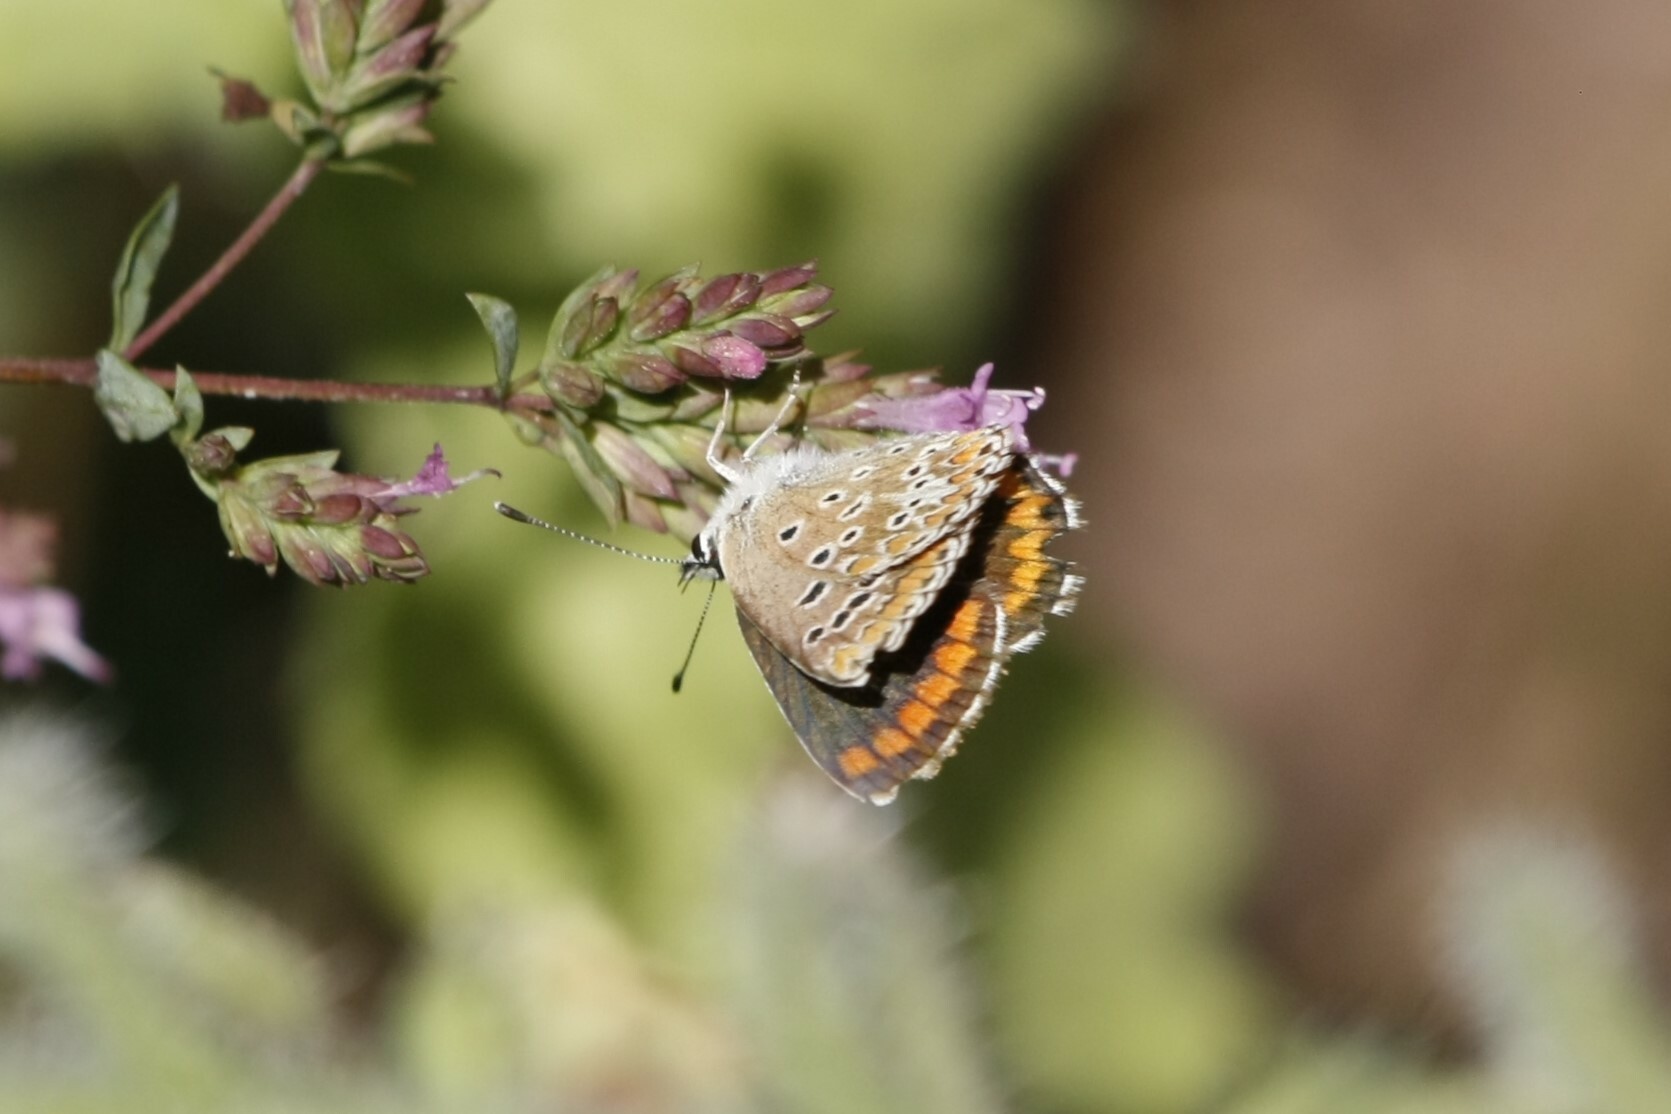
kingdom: Animalia
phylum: Arthropoda
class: Insecta
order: Lepidoptera
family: Lycaenidae
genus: Aricia
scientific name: Aricia agestis
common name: Brown argus
